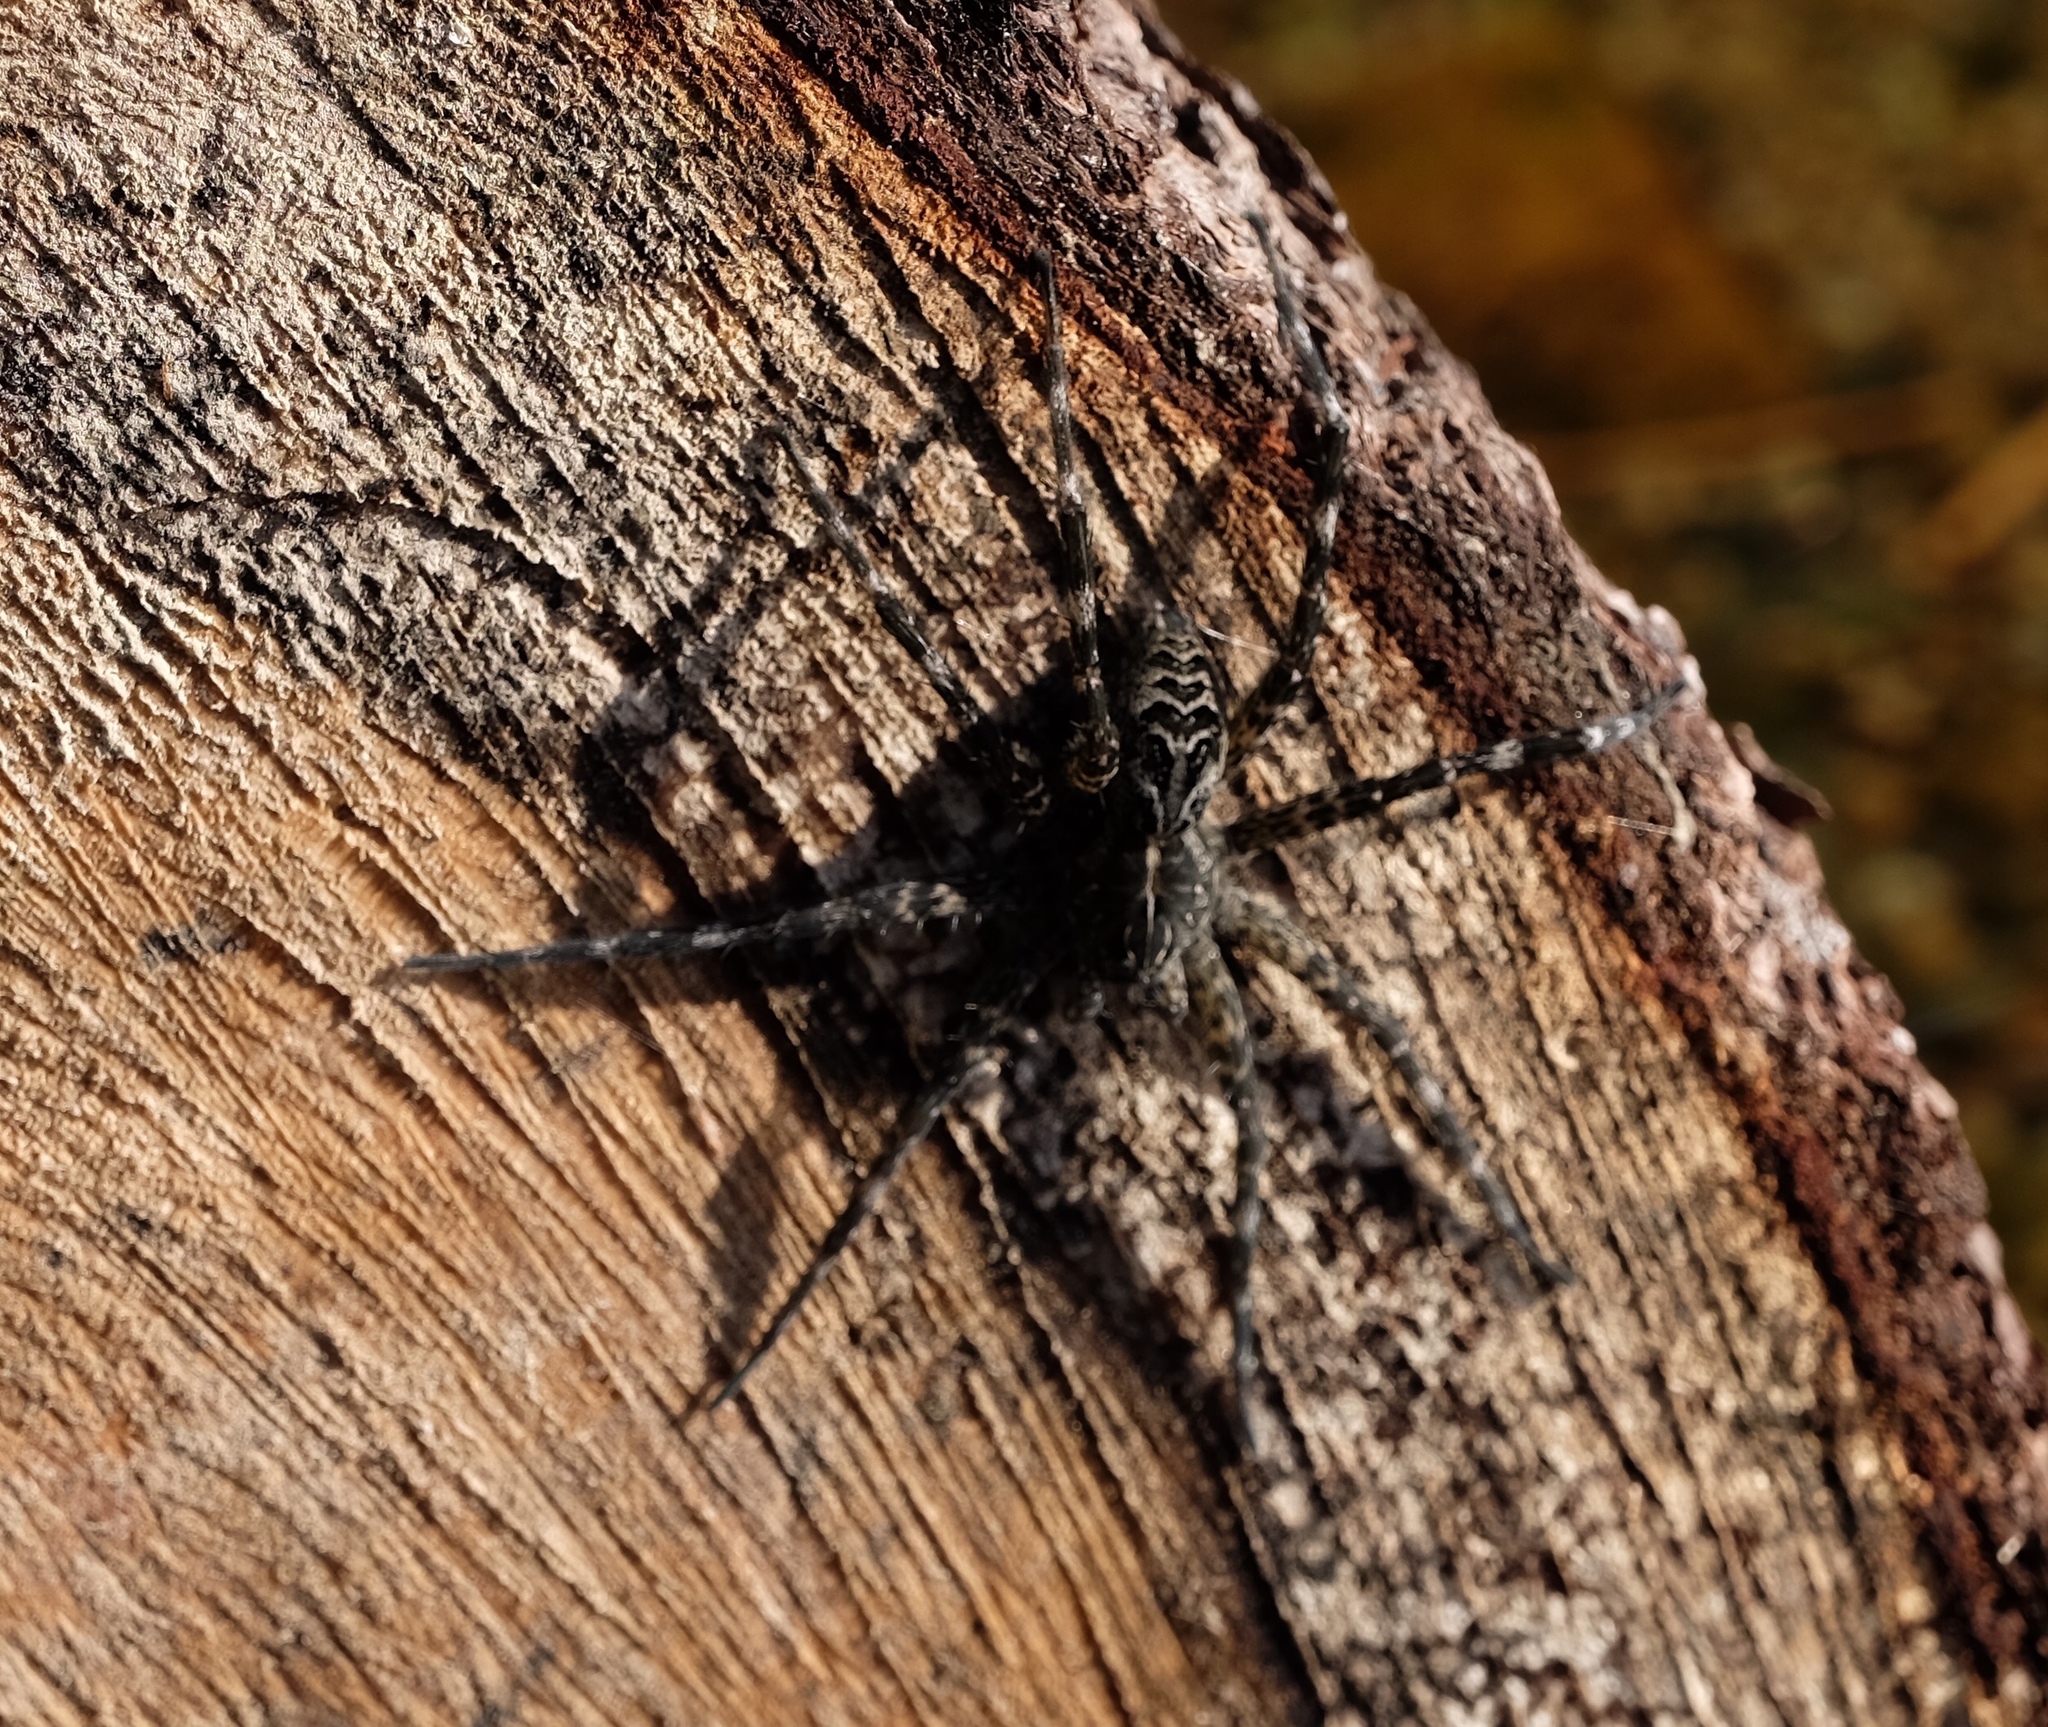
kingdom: Animalia
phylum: Arthropoda
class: Arachnida
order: Araneae
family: Pisauridae
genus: Dolomedes
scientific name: Dolomedes scriptus
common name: Striped fishing spider
